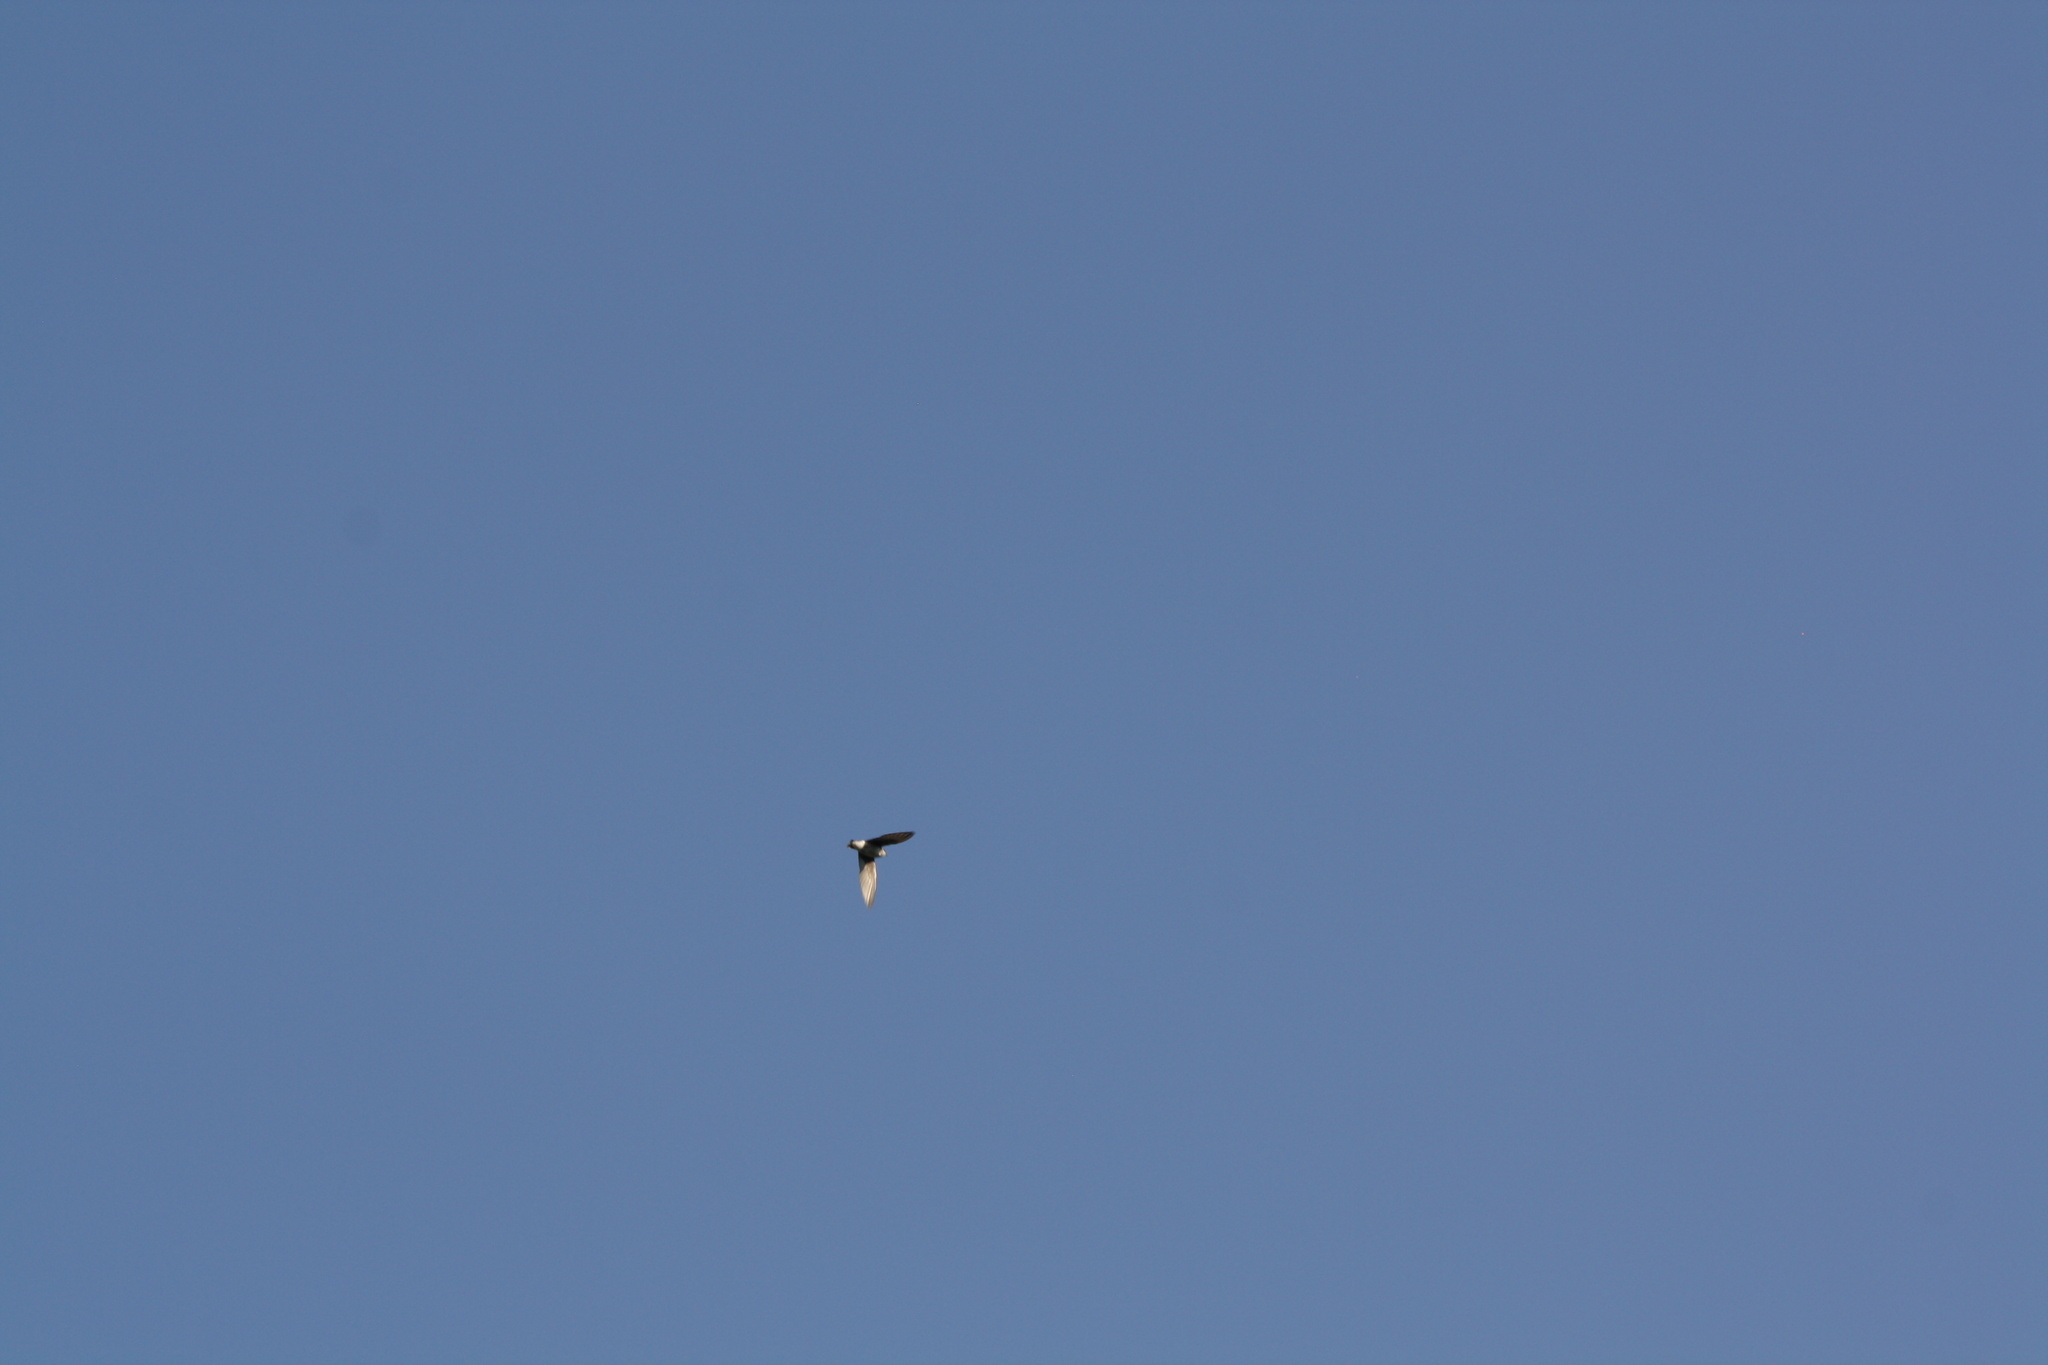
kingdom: Animalia
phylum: Chordata
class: Aves
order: Passeriformes
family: Hirundinidae
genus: Riparia
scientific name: Riparia riparia
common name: Sand martin
